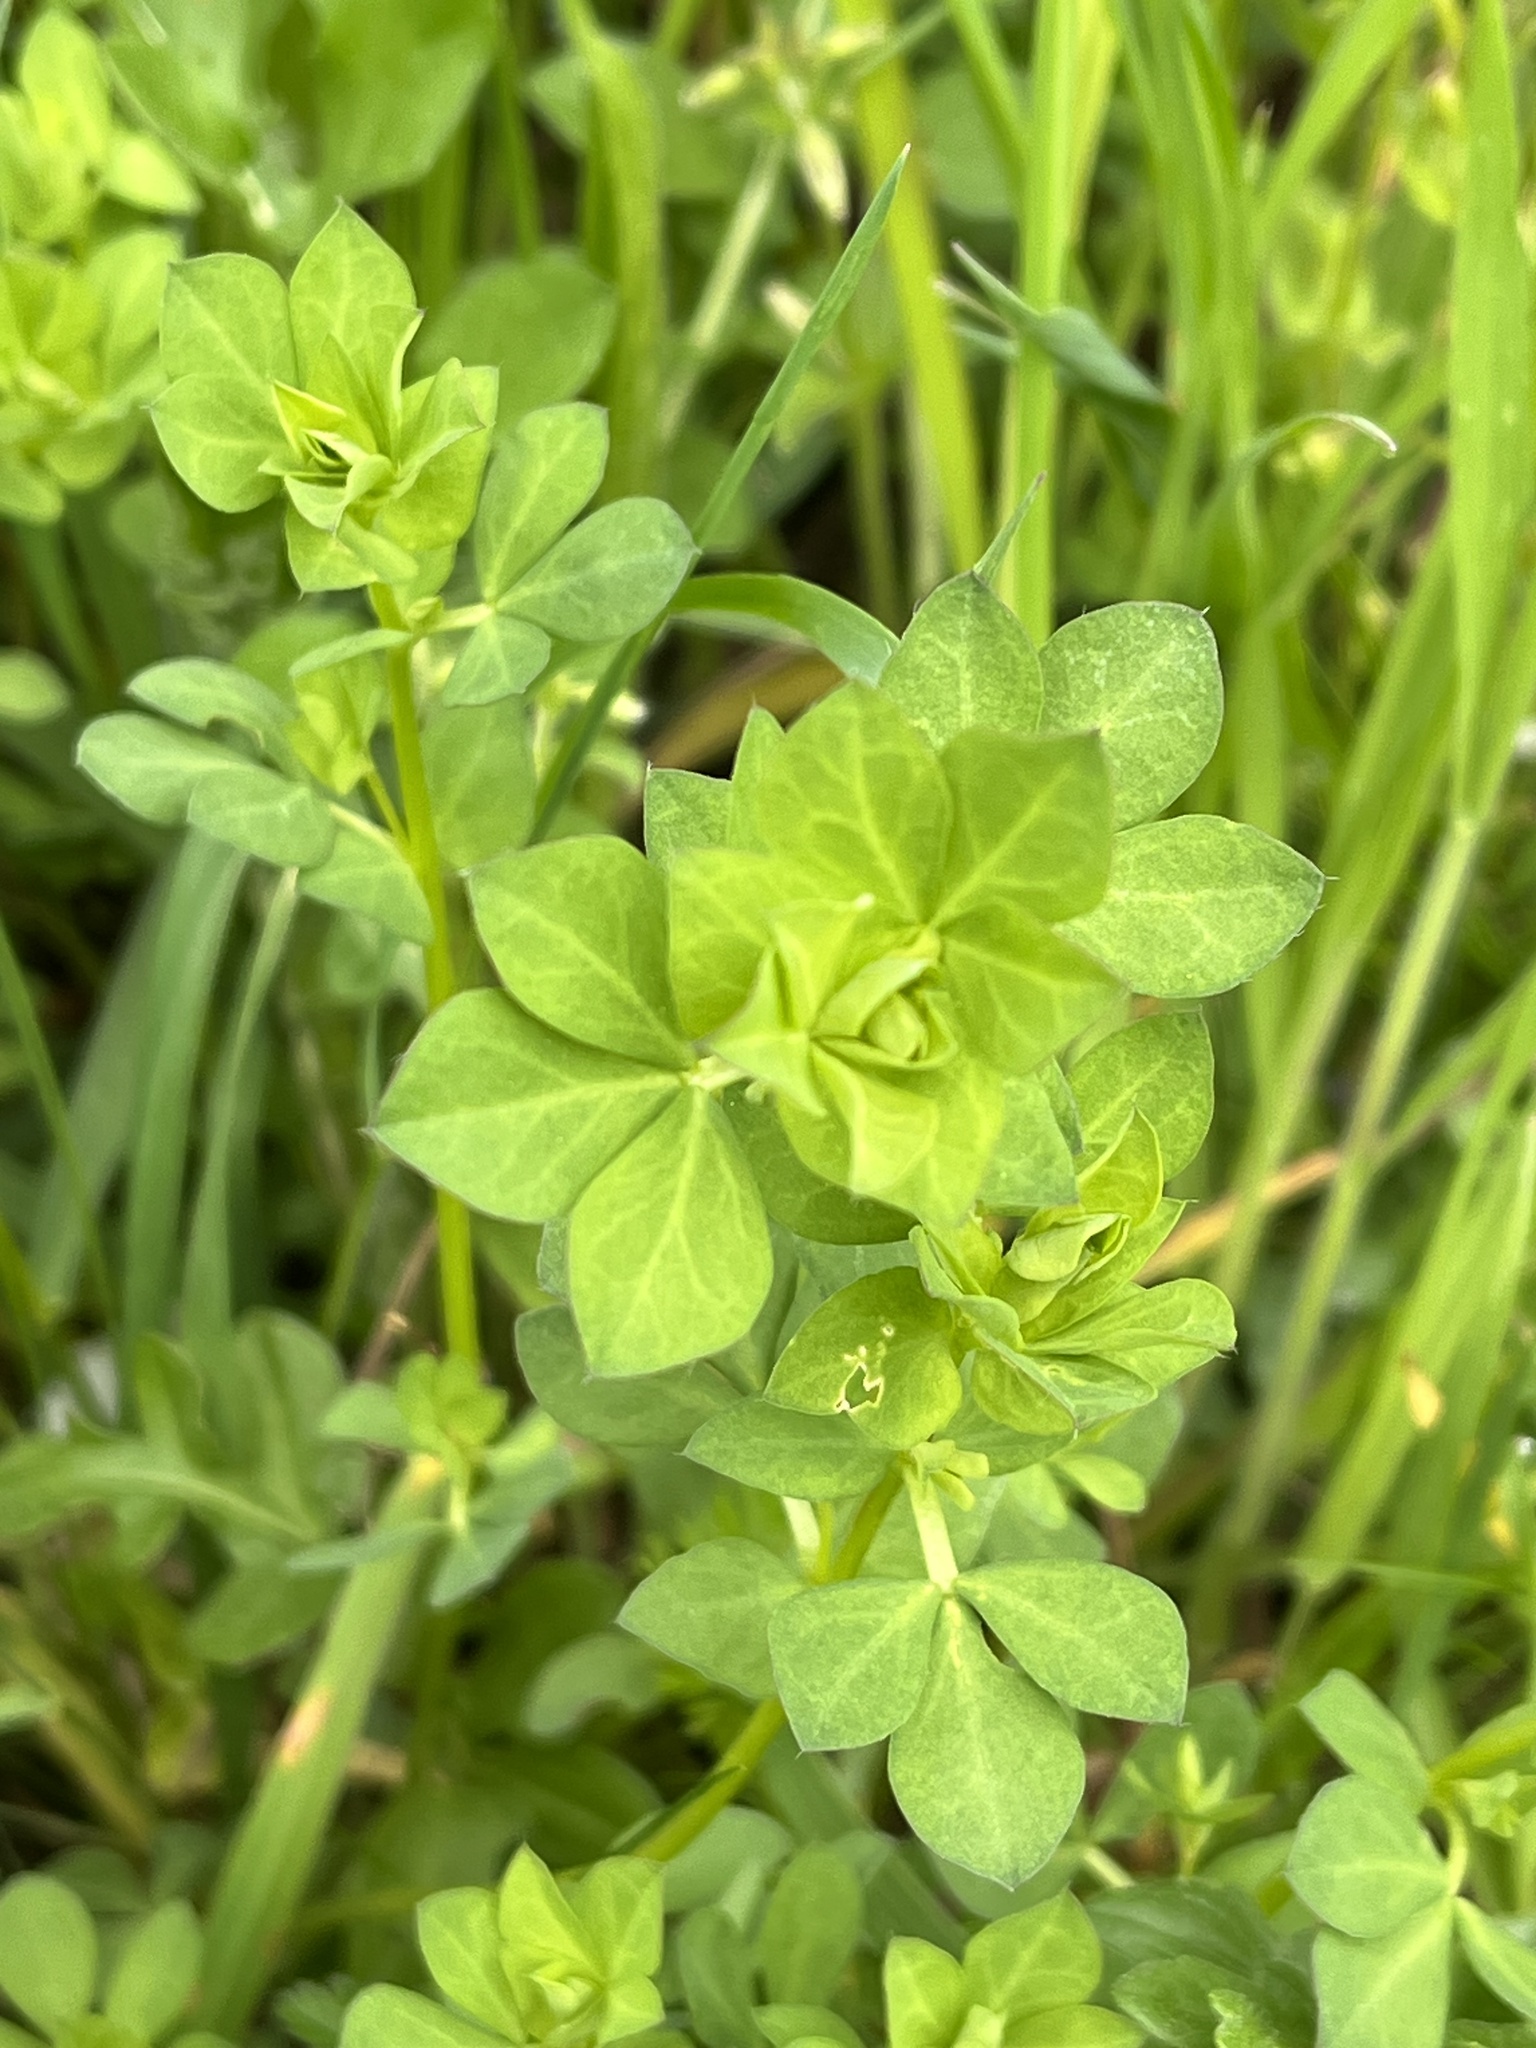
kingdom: Plantae
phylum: Tracheophyta
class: Magnoliopsida
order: Fabales
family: Fabaceae
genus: Lotus
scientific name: Lotus corniculatus
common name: Common bird's-foot-trefoil
